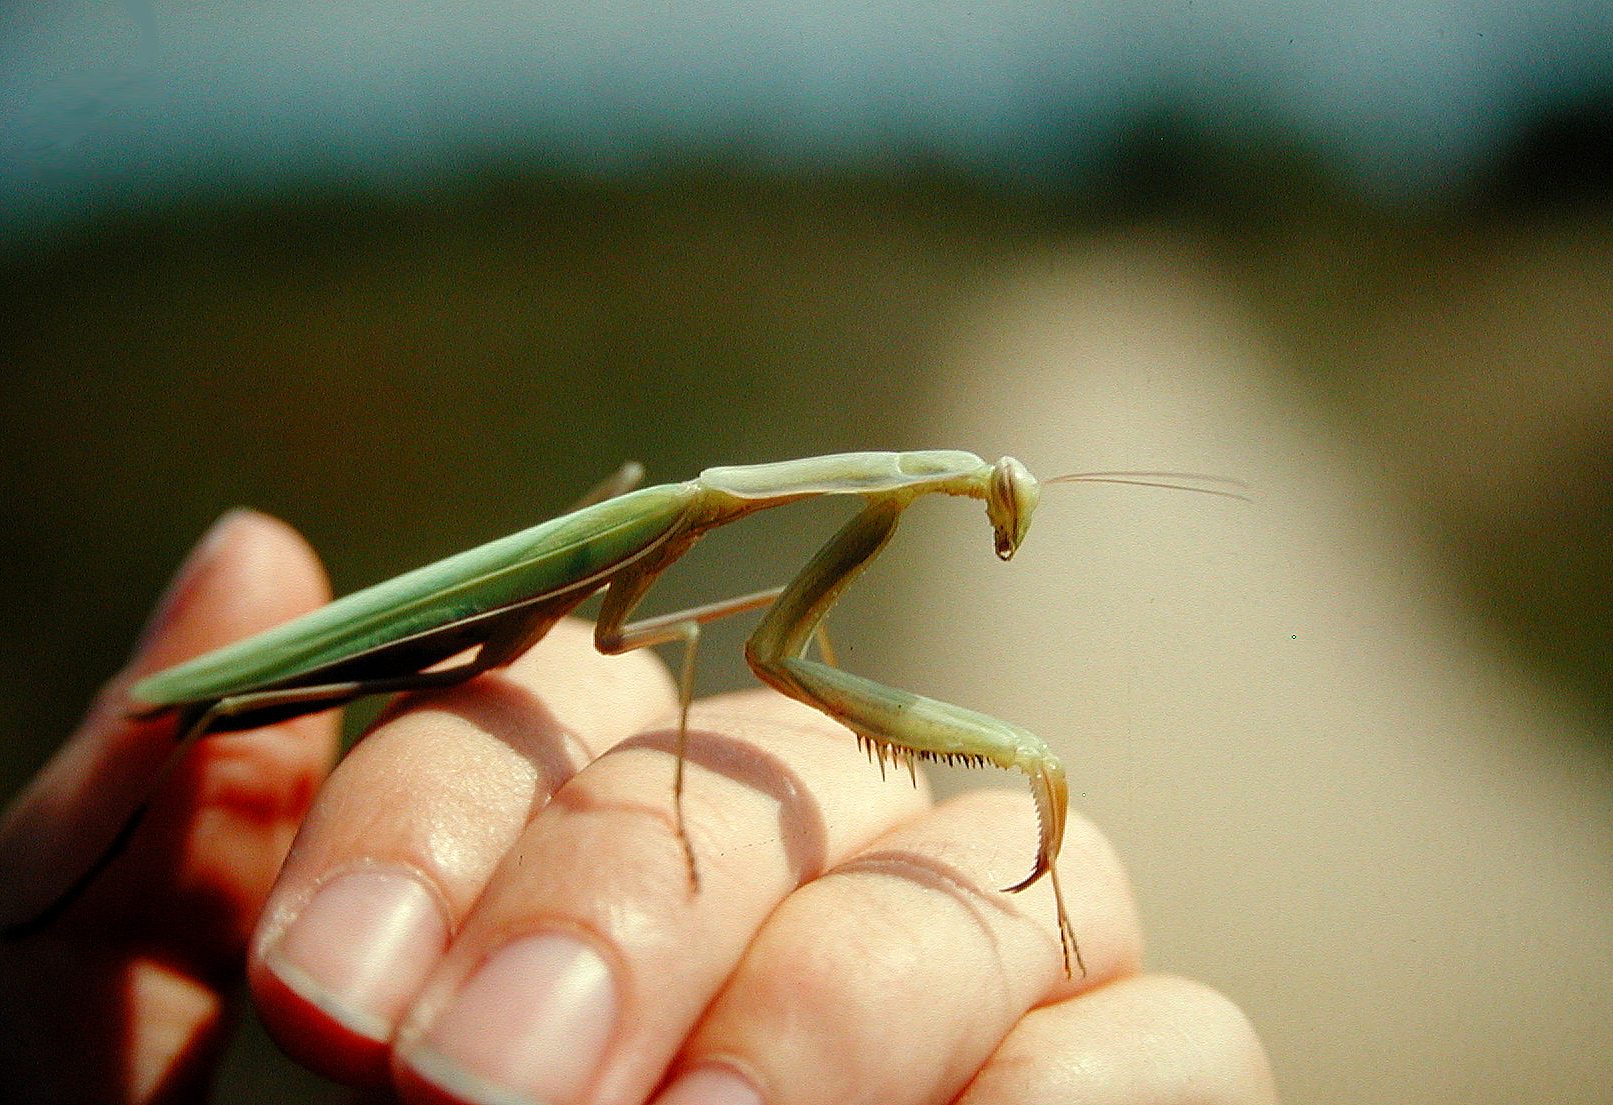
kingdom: Animalia
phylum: Arthropoda
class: Insecta
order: Mantodea
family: Mantidae
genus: Mantis
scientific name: Mantis religiosa
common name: Praying mantis
